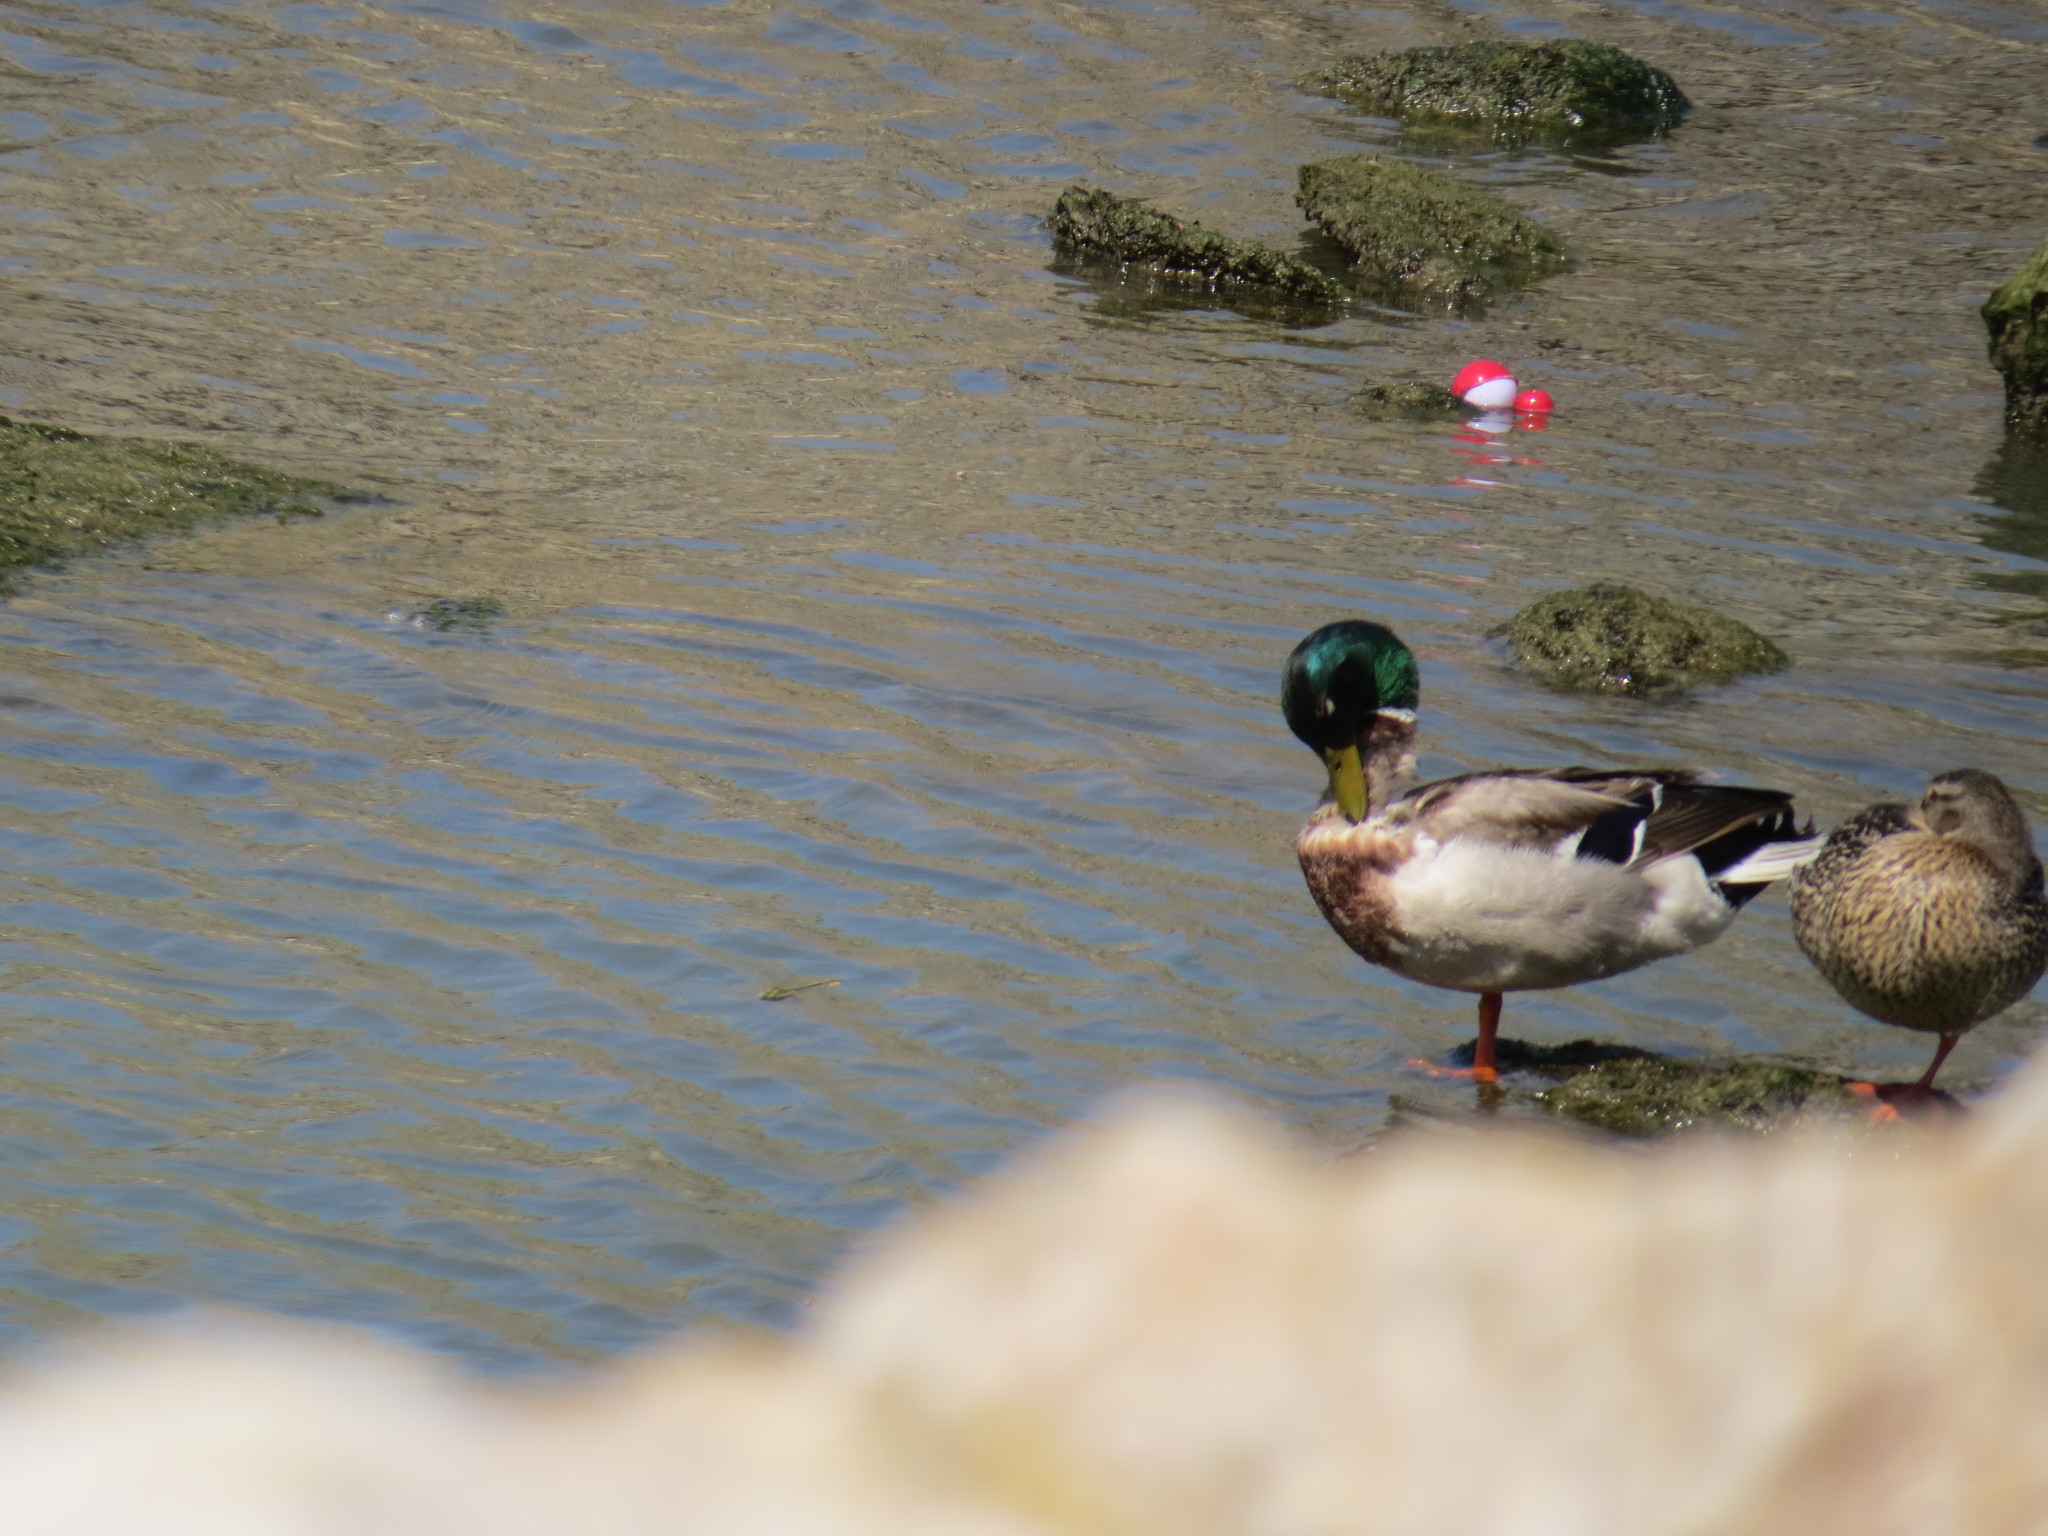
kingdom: Animalia
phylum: Chordata
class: Aves
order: Anseriformes
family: Anatidae
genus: Anas
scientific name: Anas platyrhynchos
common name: Mallard
